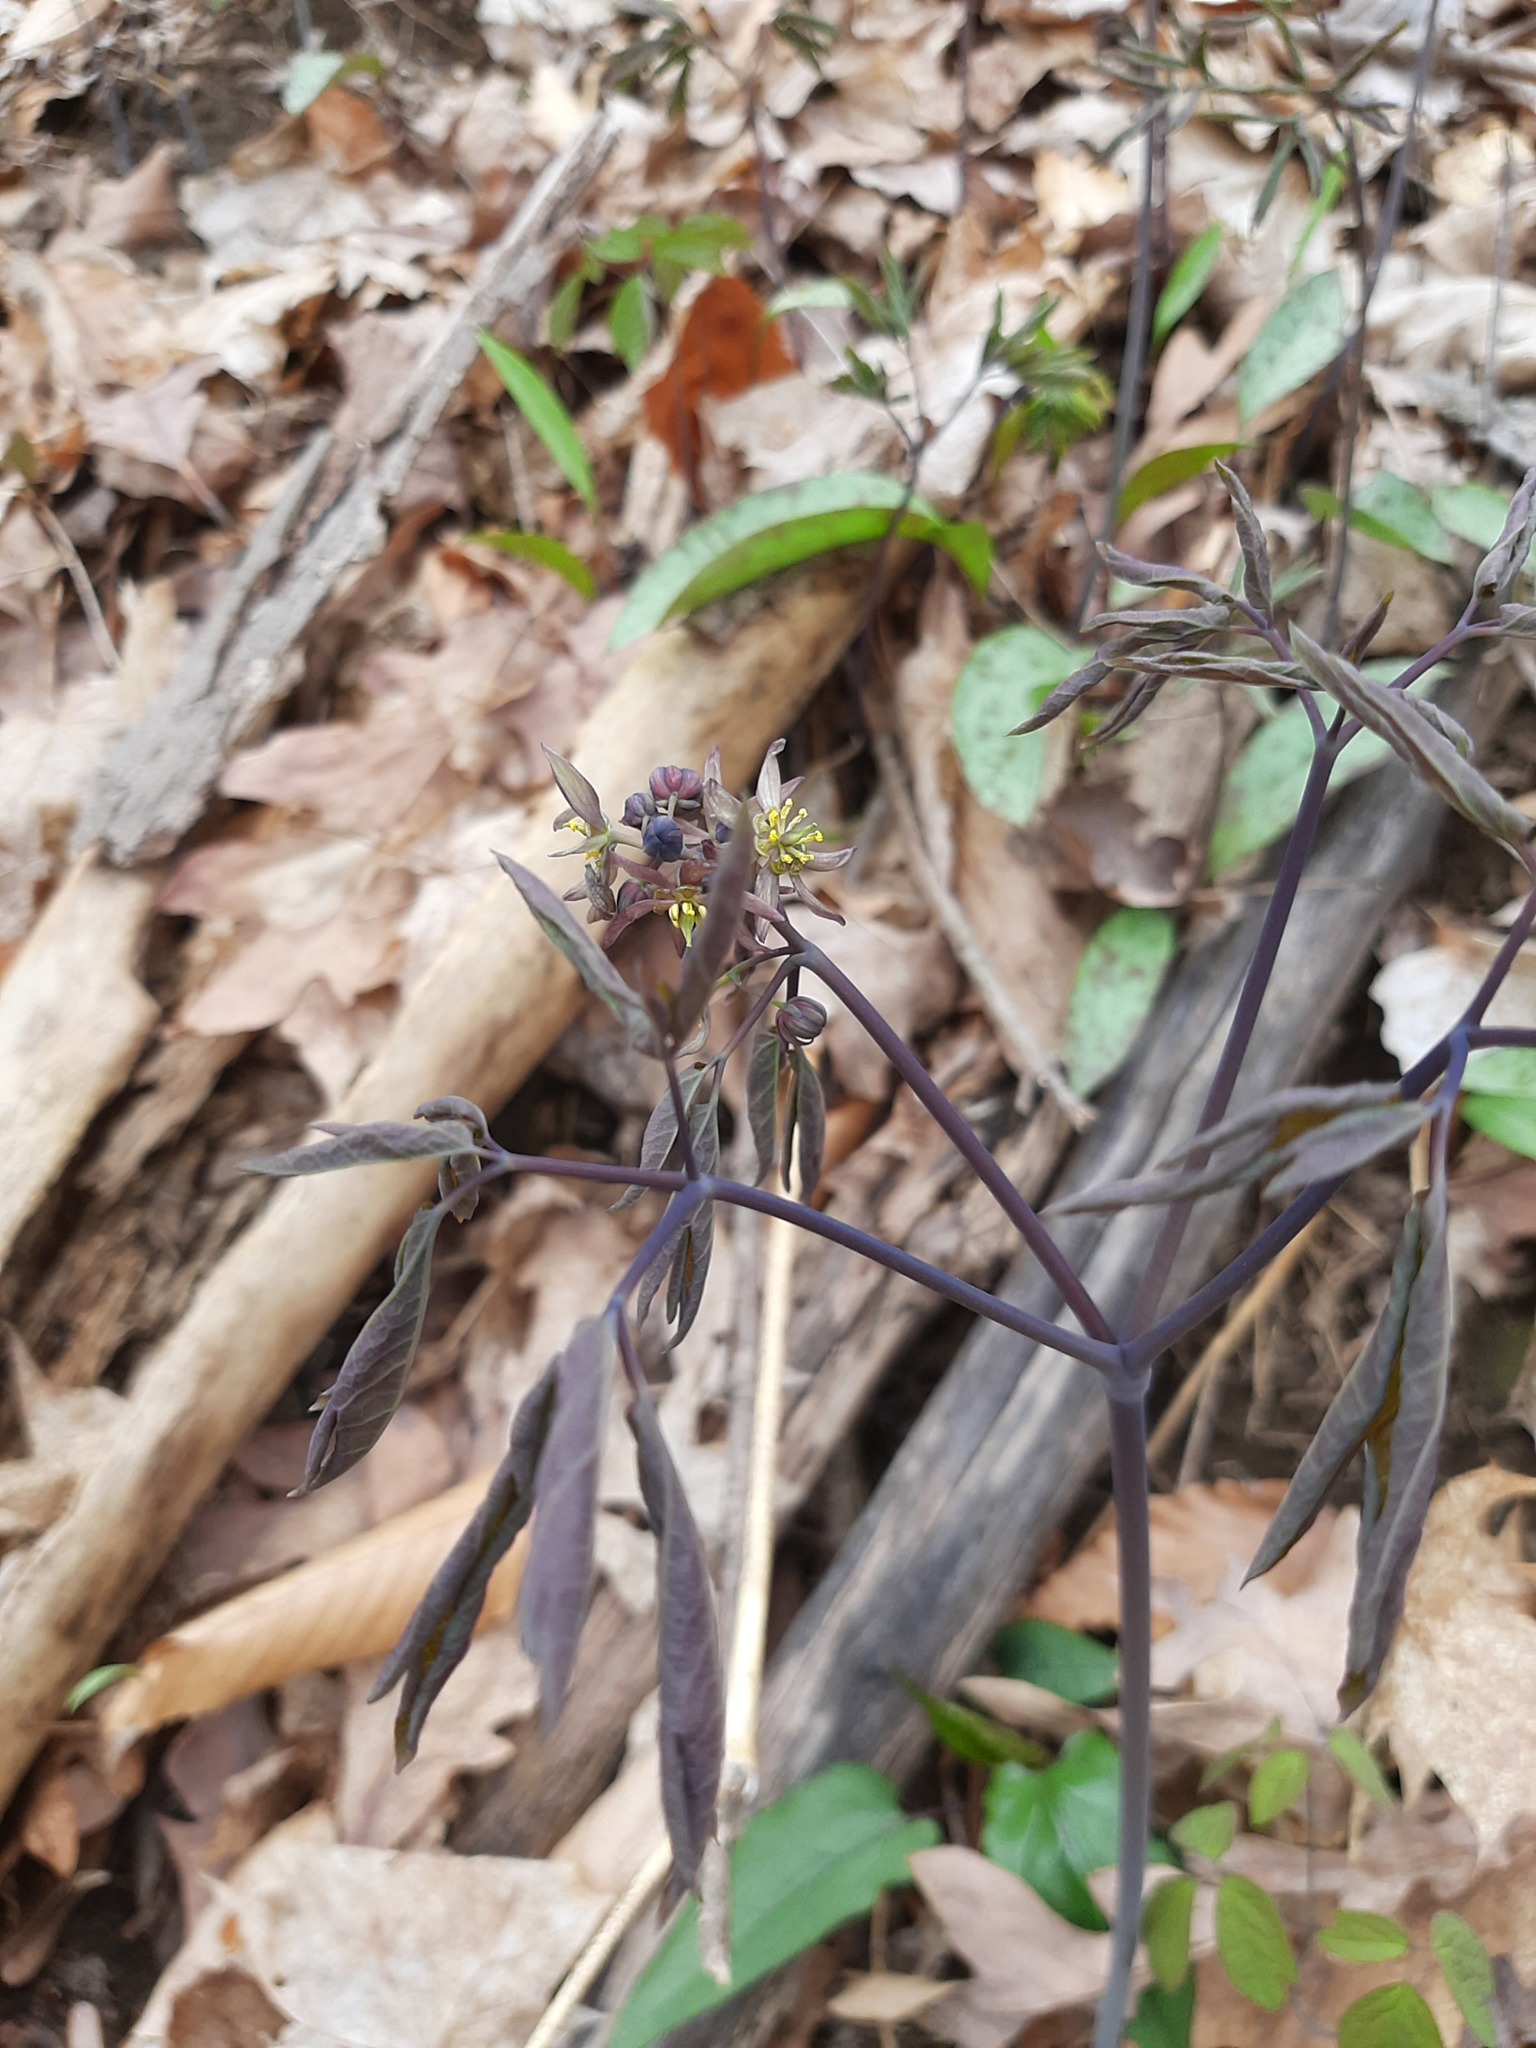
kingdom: Plantae
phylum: Tracheophyta
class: Magnoliopsida
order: Ranunculales
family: Berberidaceae
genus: Caulophyllum
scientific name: Caulophyllum giganteum
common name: Blue cohosh
